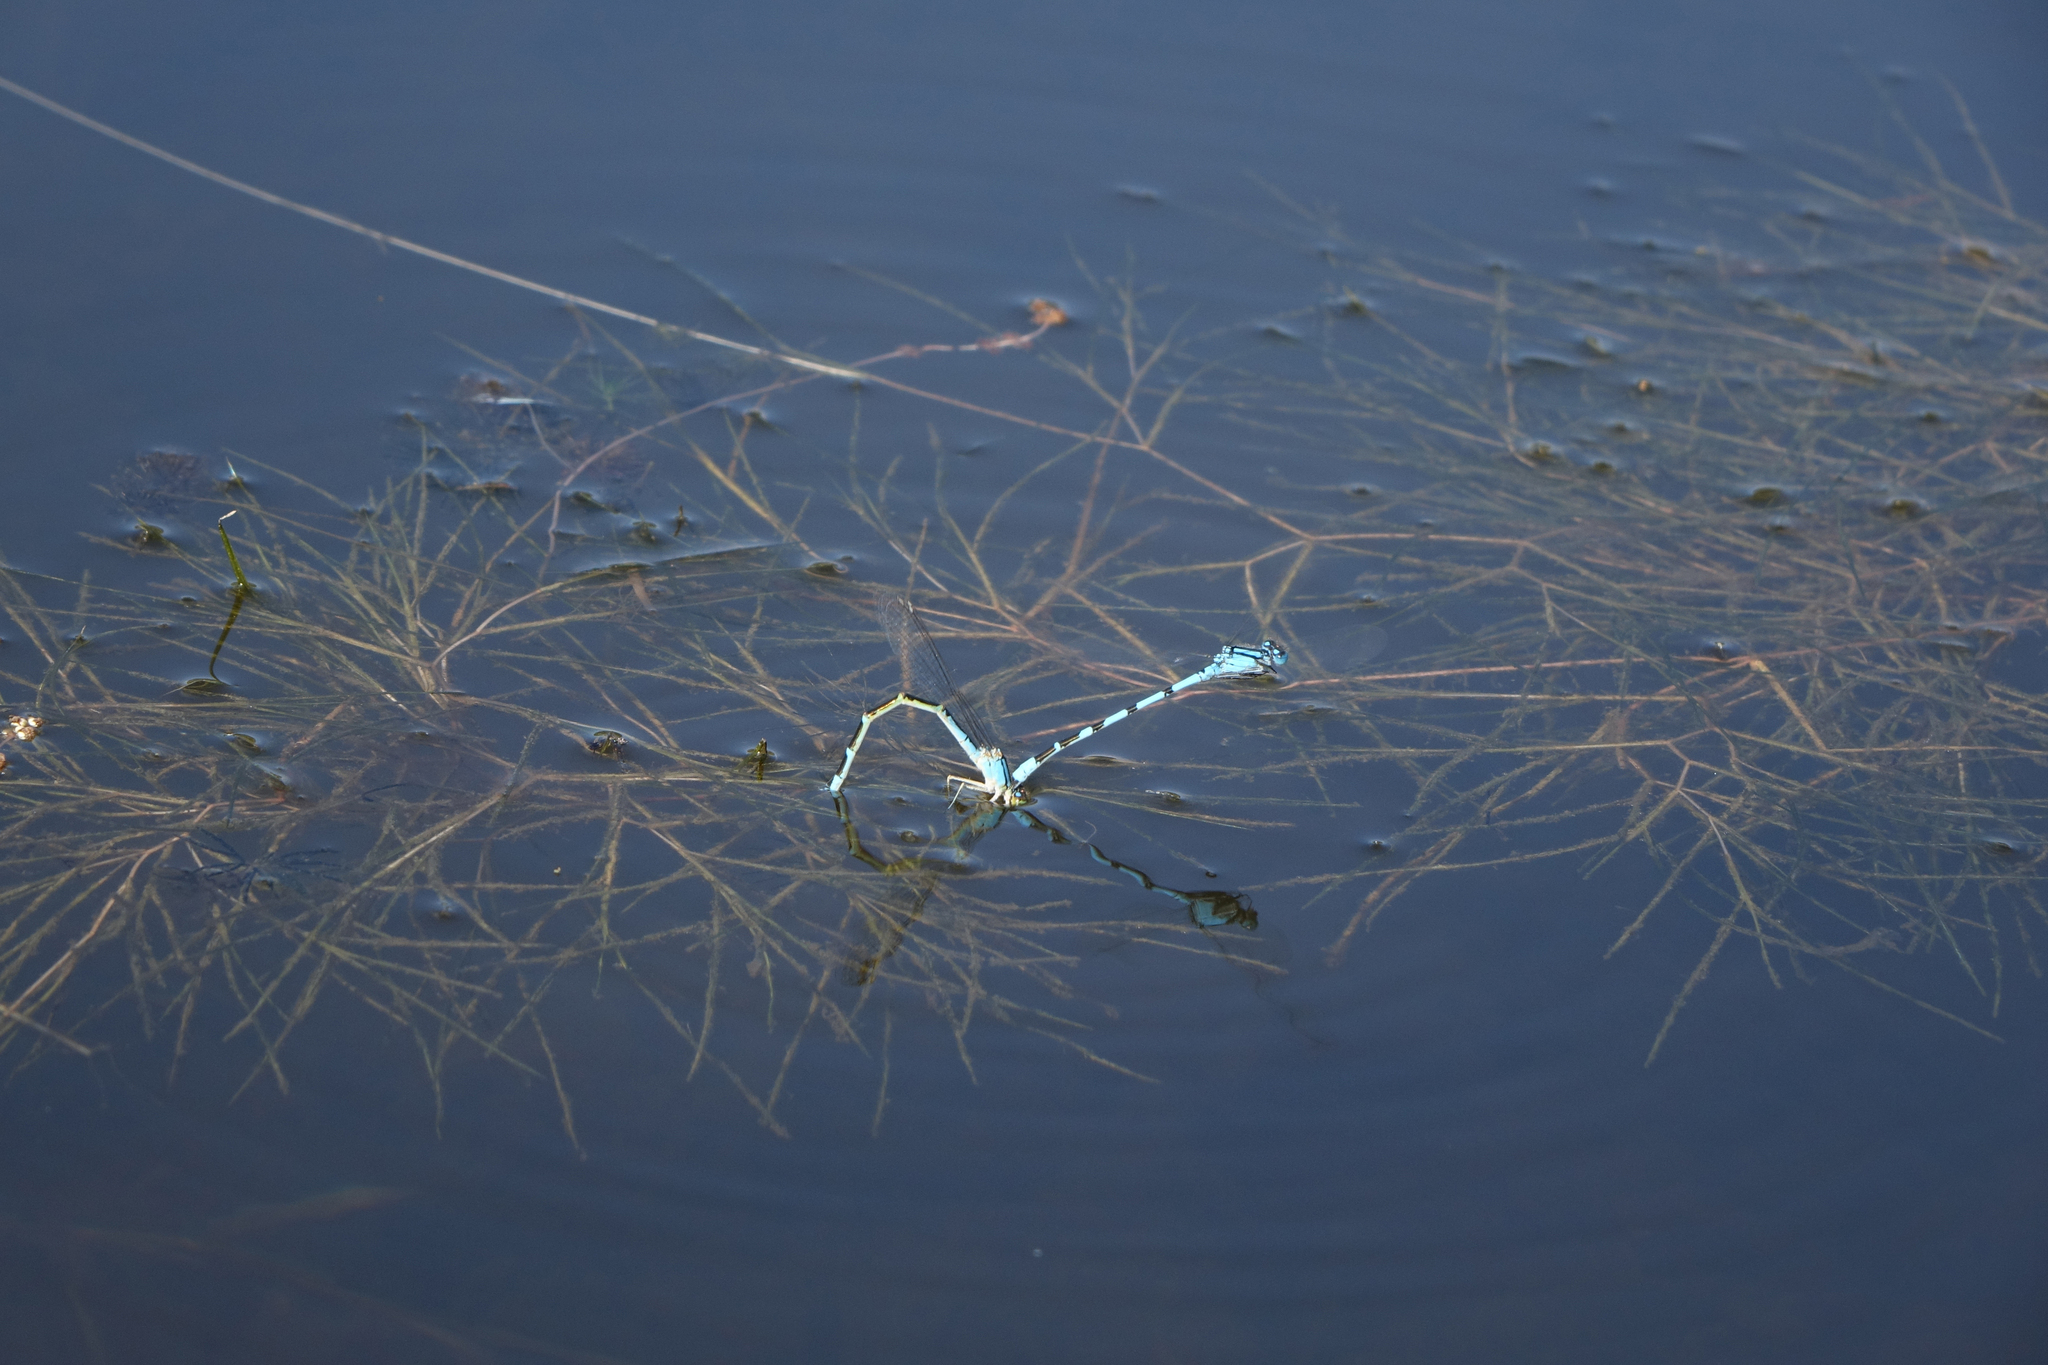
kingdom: Plantae
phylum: Tracheophyta
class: Liliopsida
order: Alismatales
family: Potamogetonaceae
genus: Stuckenia
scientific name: Stuckenia pectinata
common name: Sago pondweed
